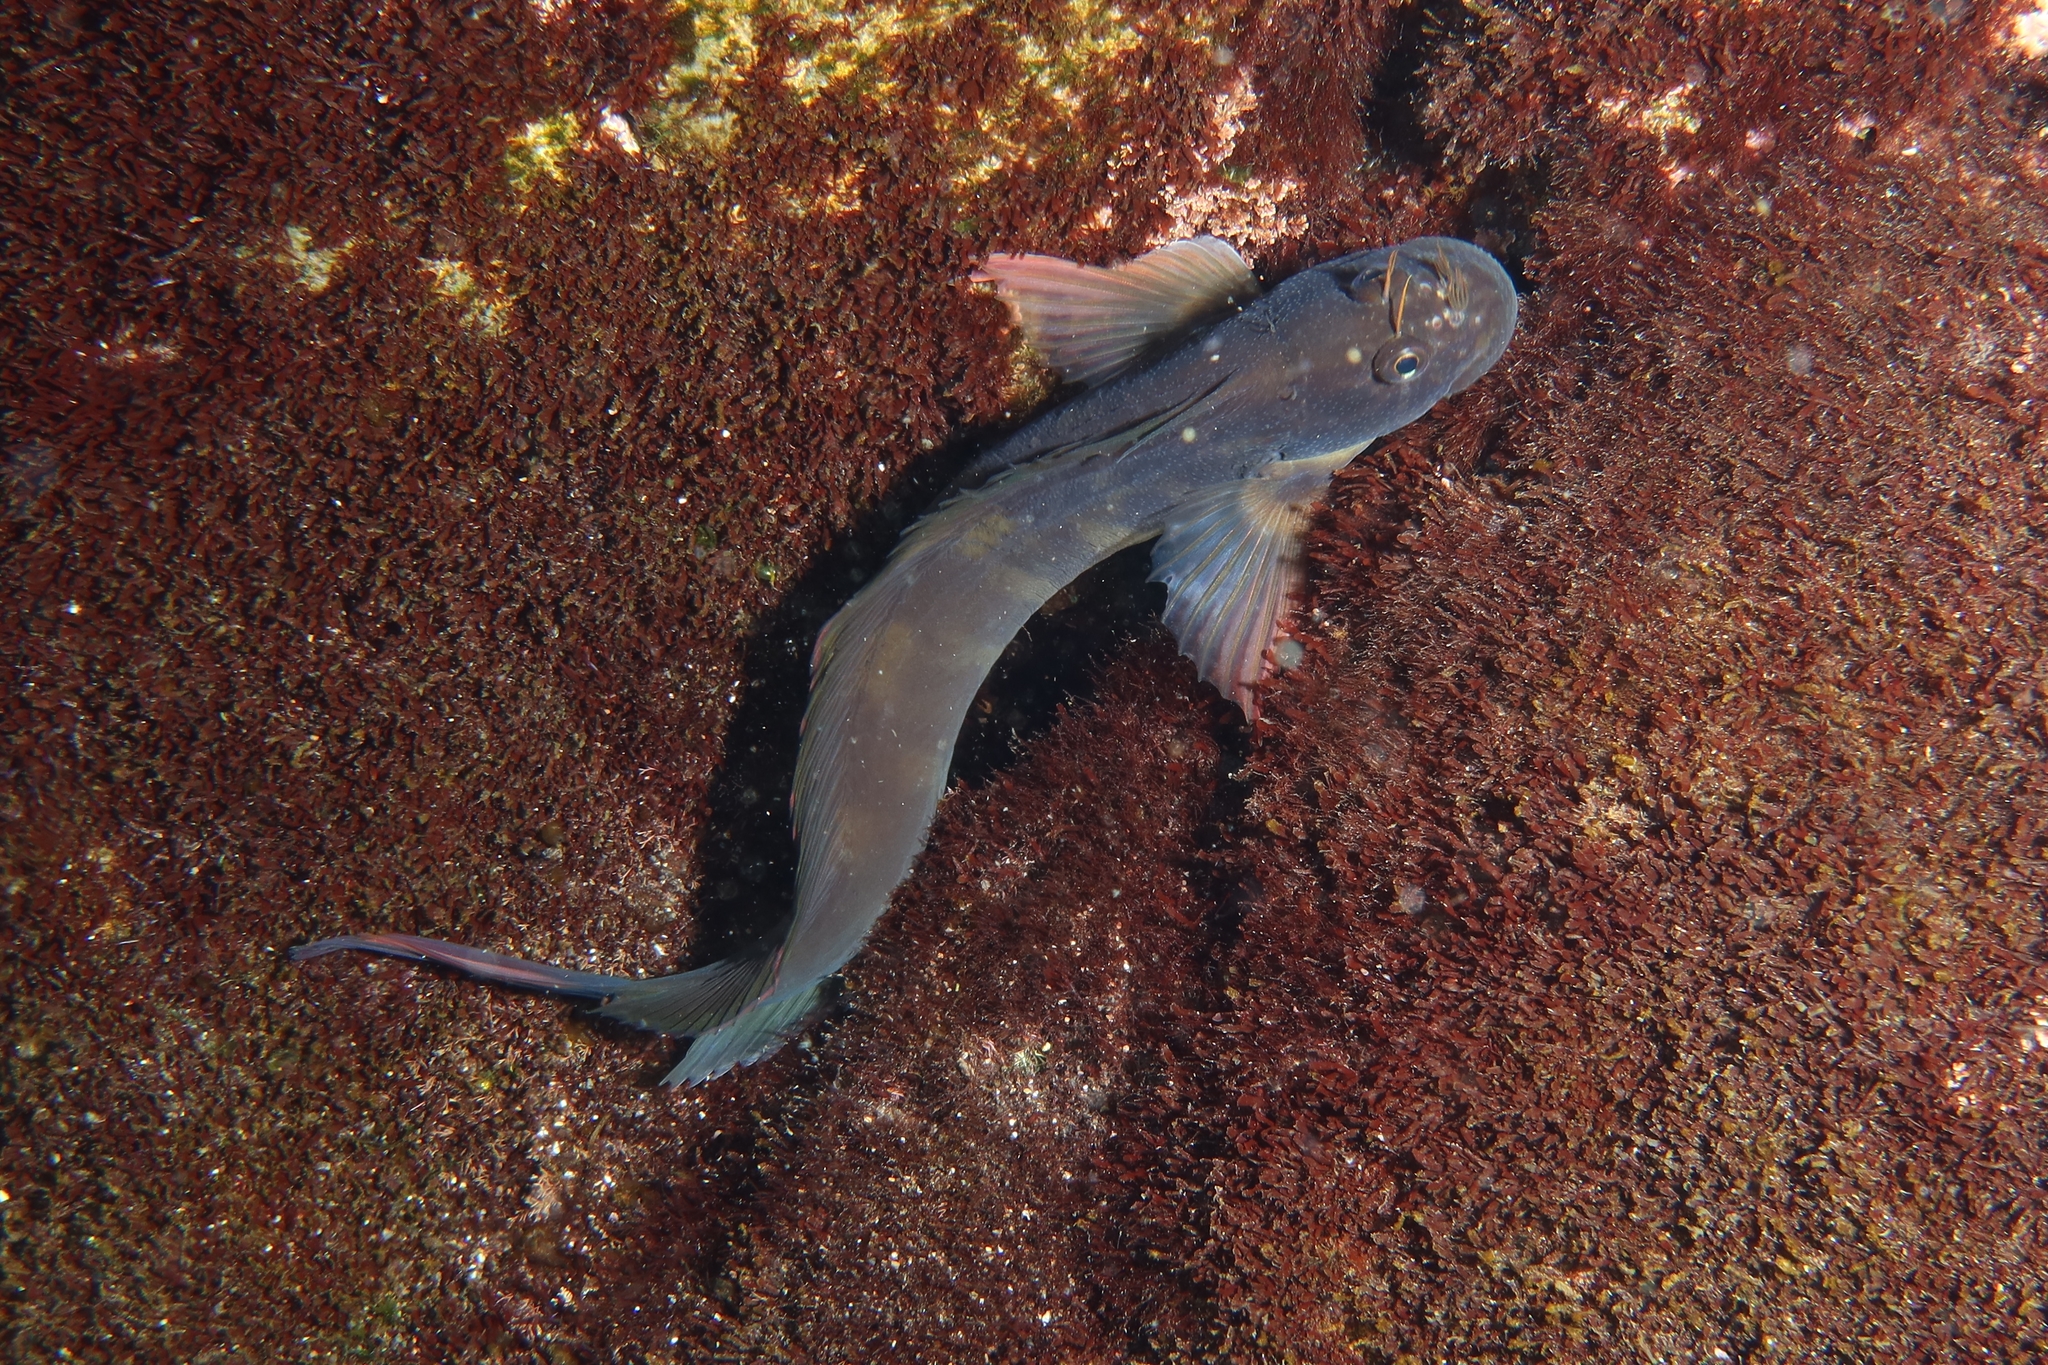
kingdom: Animalia
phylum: Chordata
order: Perciformes
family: Blenniidae
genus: Ophioblennius
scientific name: Ophioblennius atlanticus
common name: Redlip blenny
